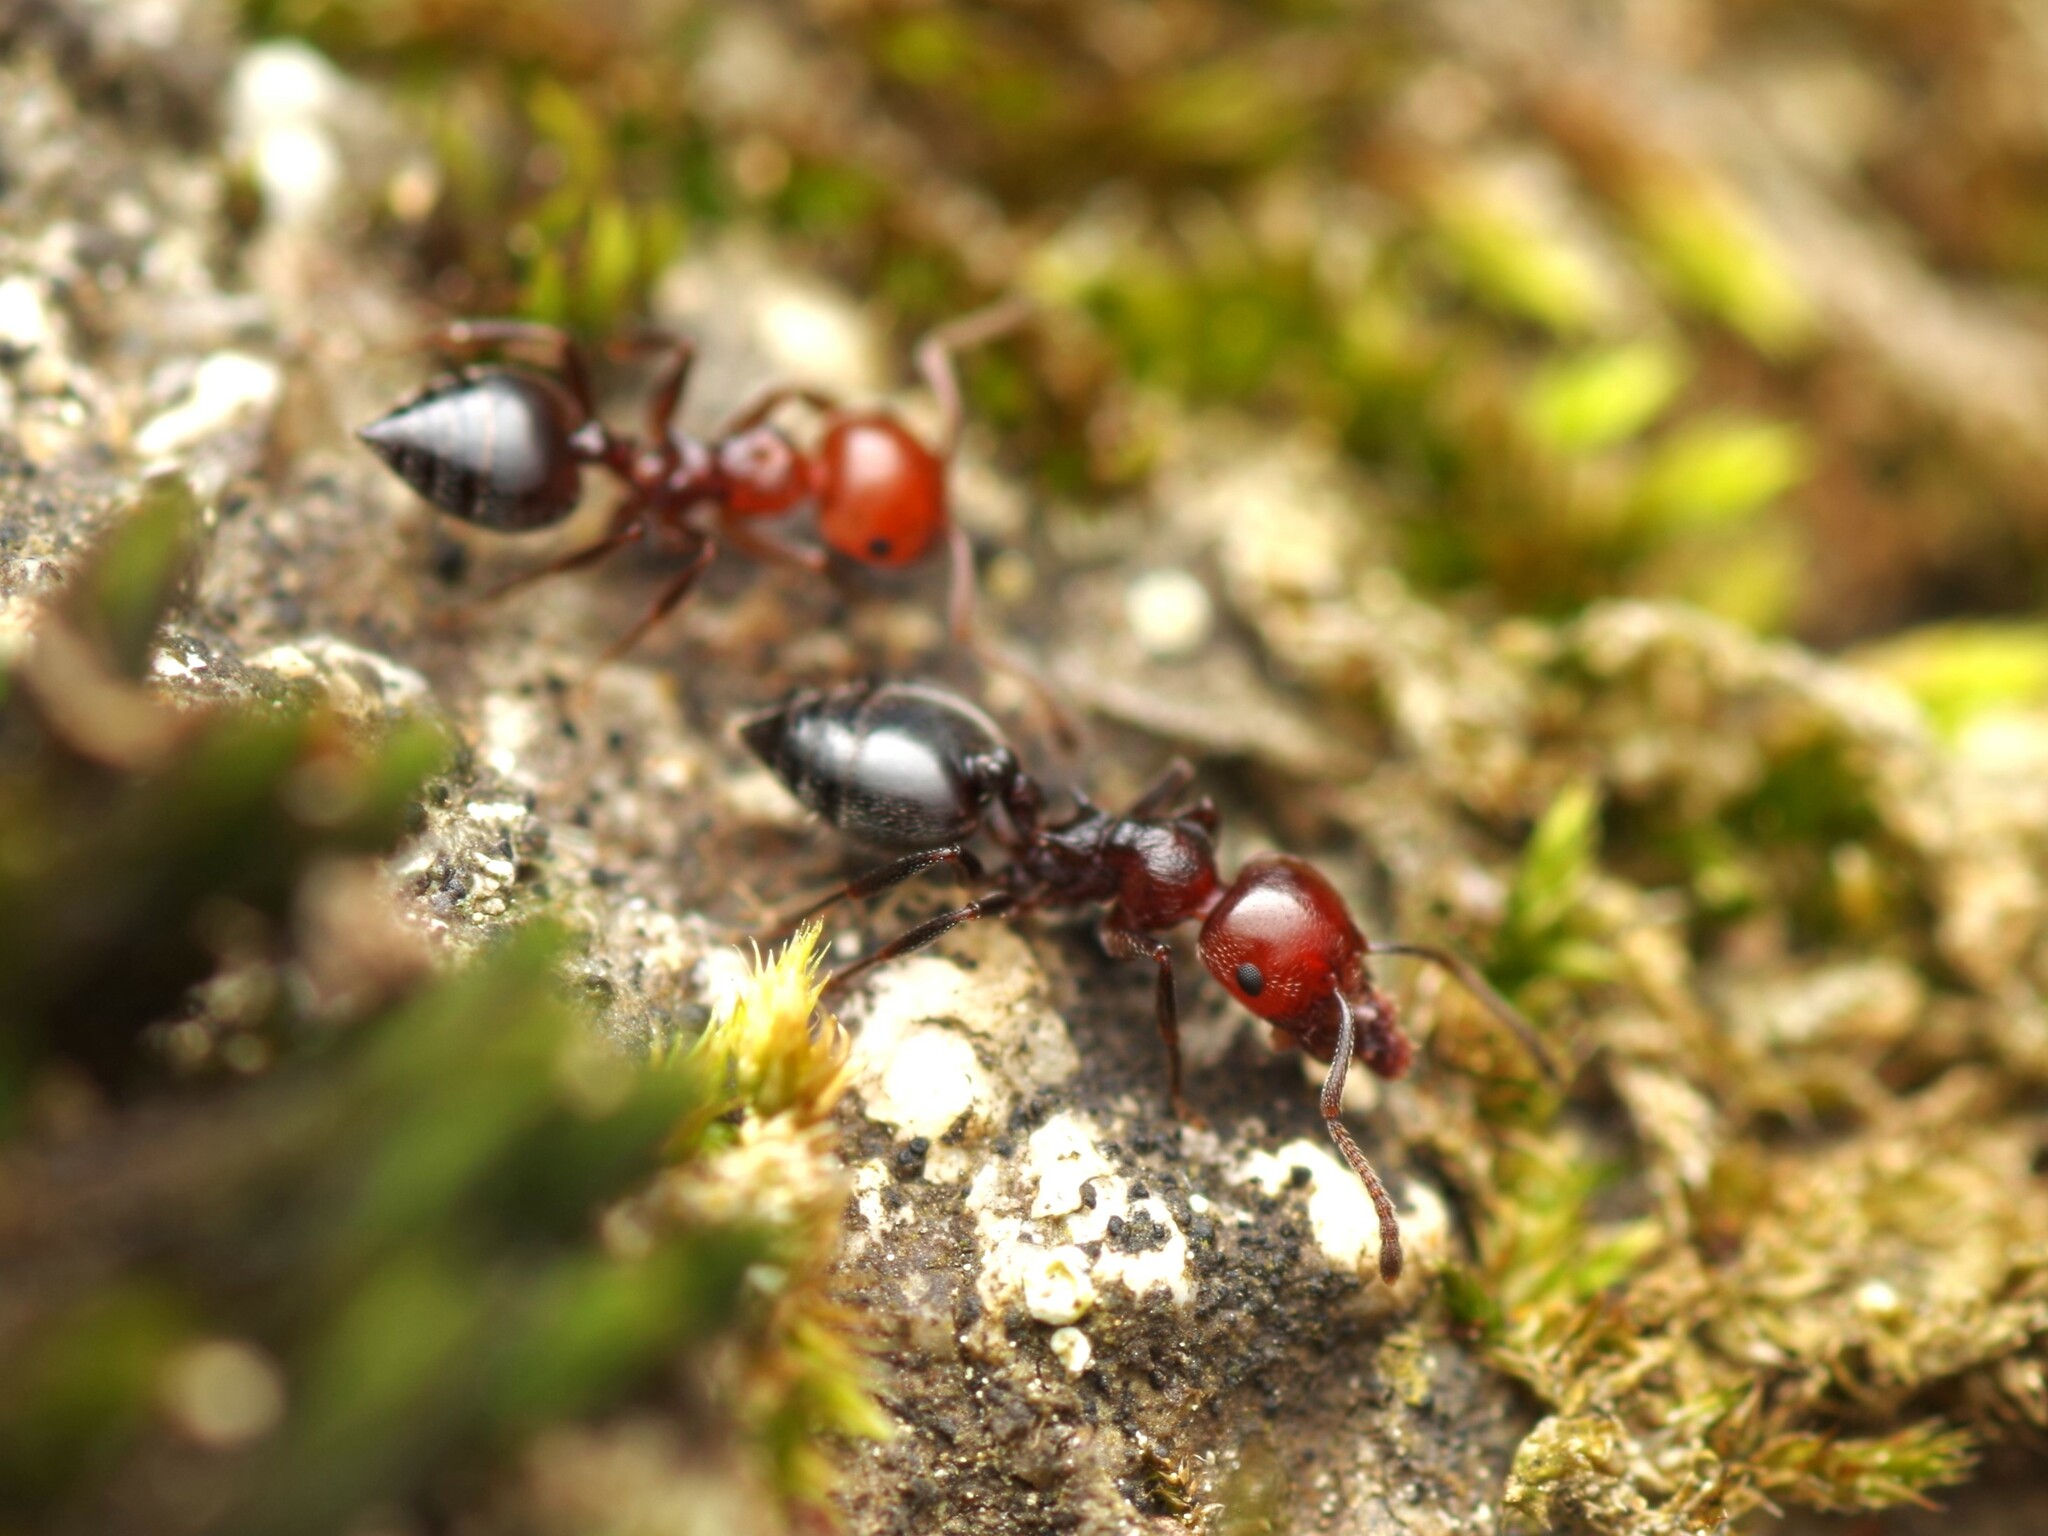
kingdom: Animalia
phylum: Arthropoda
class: Insecta
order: Hymenoptera
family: Formicidae
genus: Crematogaster
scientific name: Crematogaster scutellaris
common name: Fourmi du liège
